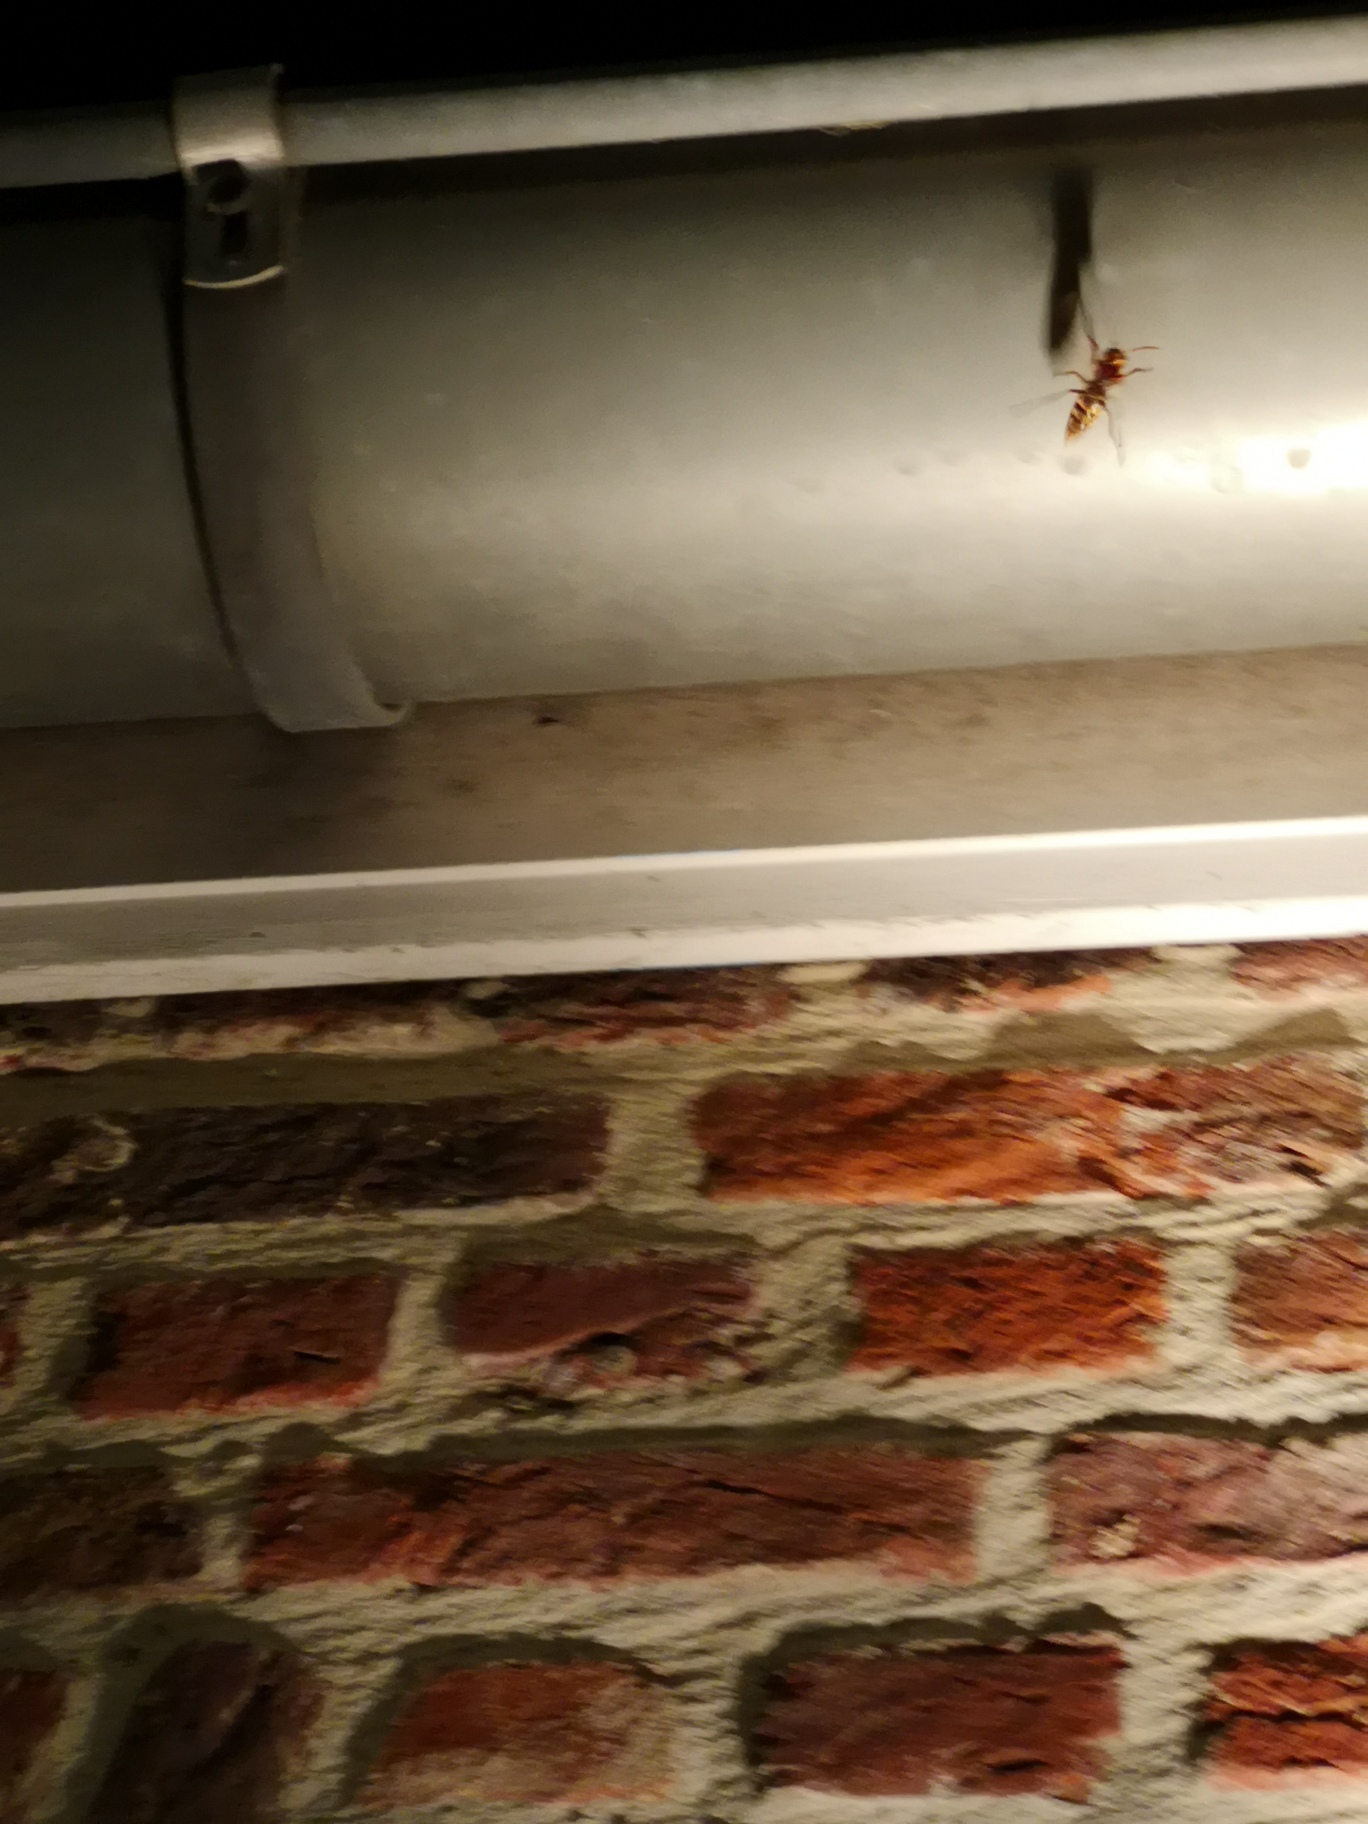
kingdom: Animalia
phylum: Arthropoda
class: Insecta
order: Hymenoptera
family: Vespidae
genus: Vespa
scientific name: Vespa crabro
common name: Hornet
